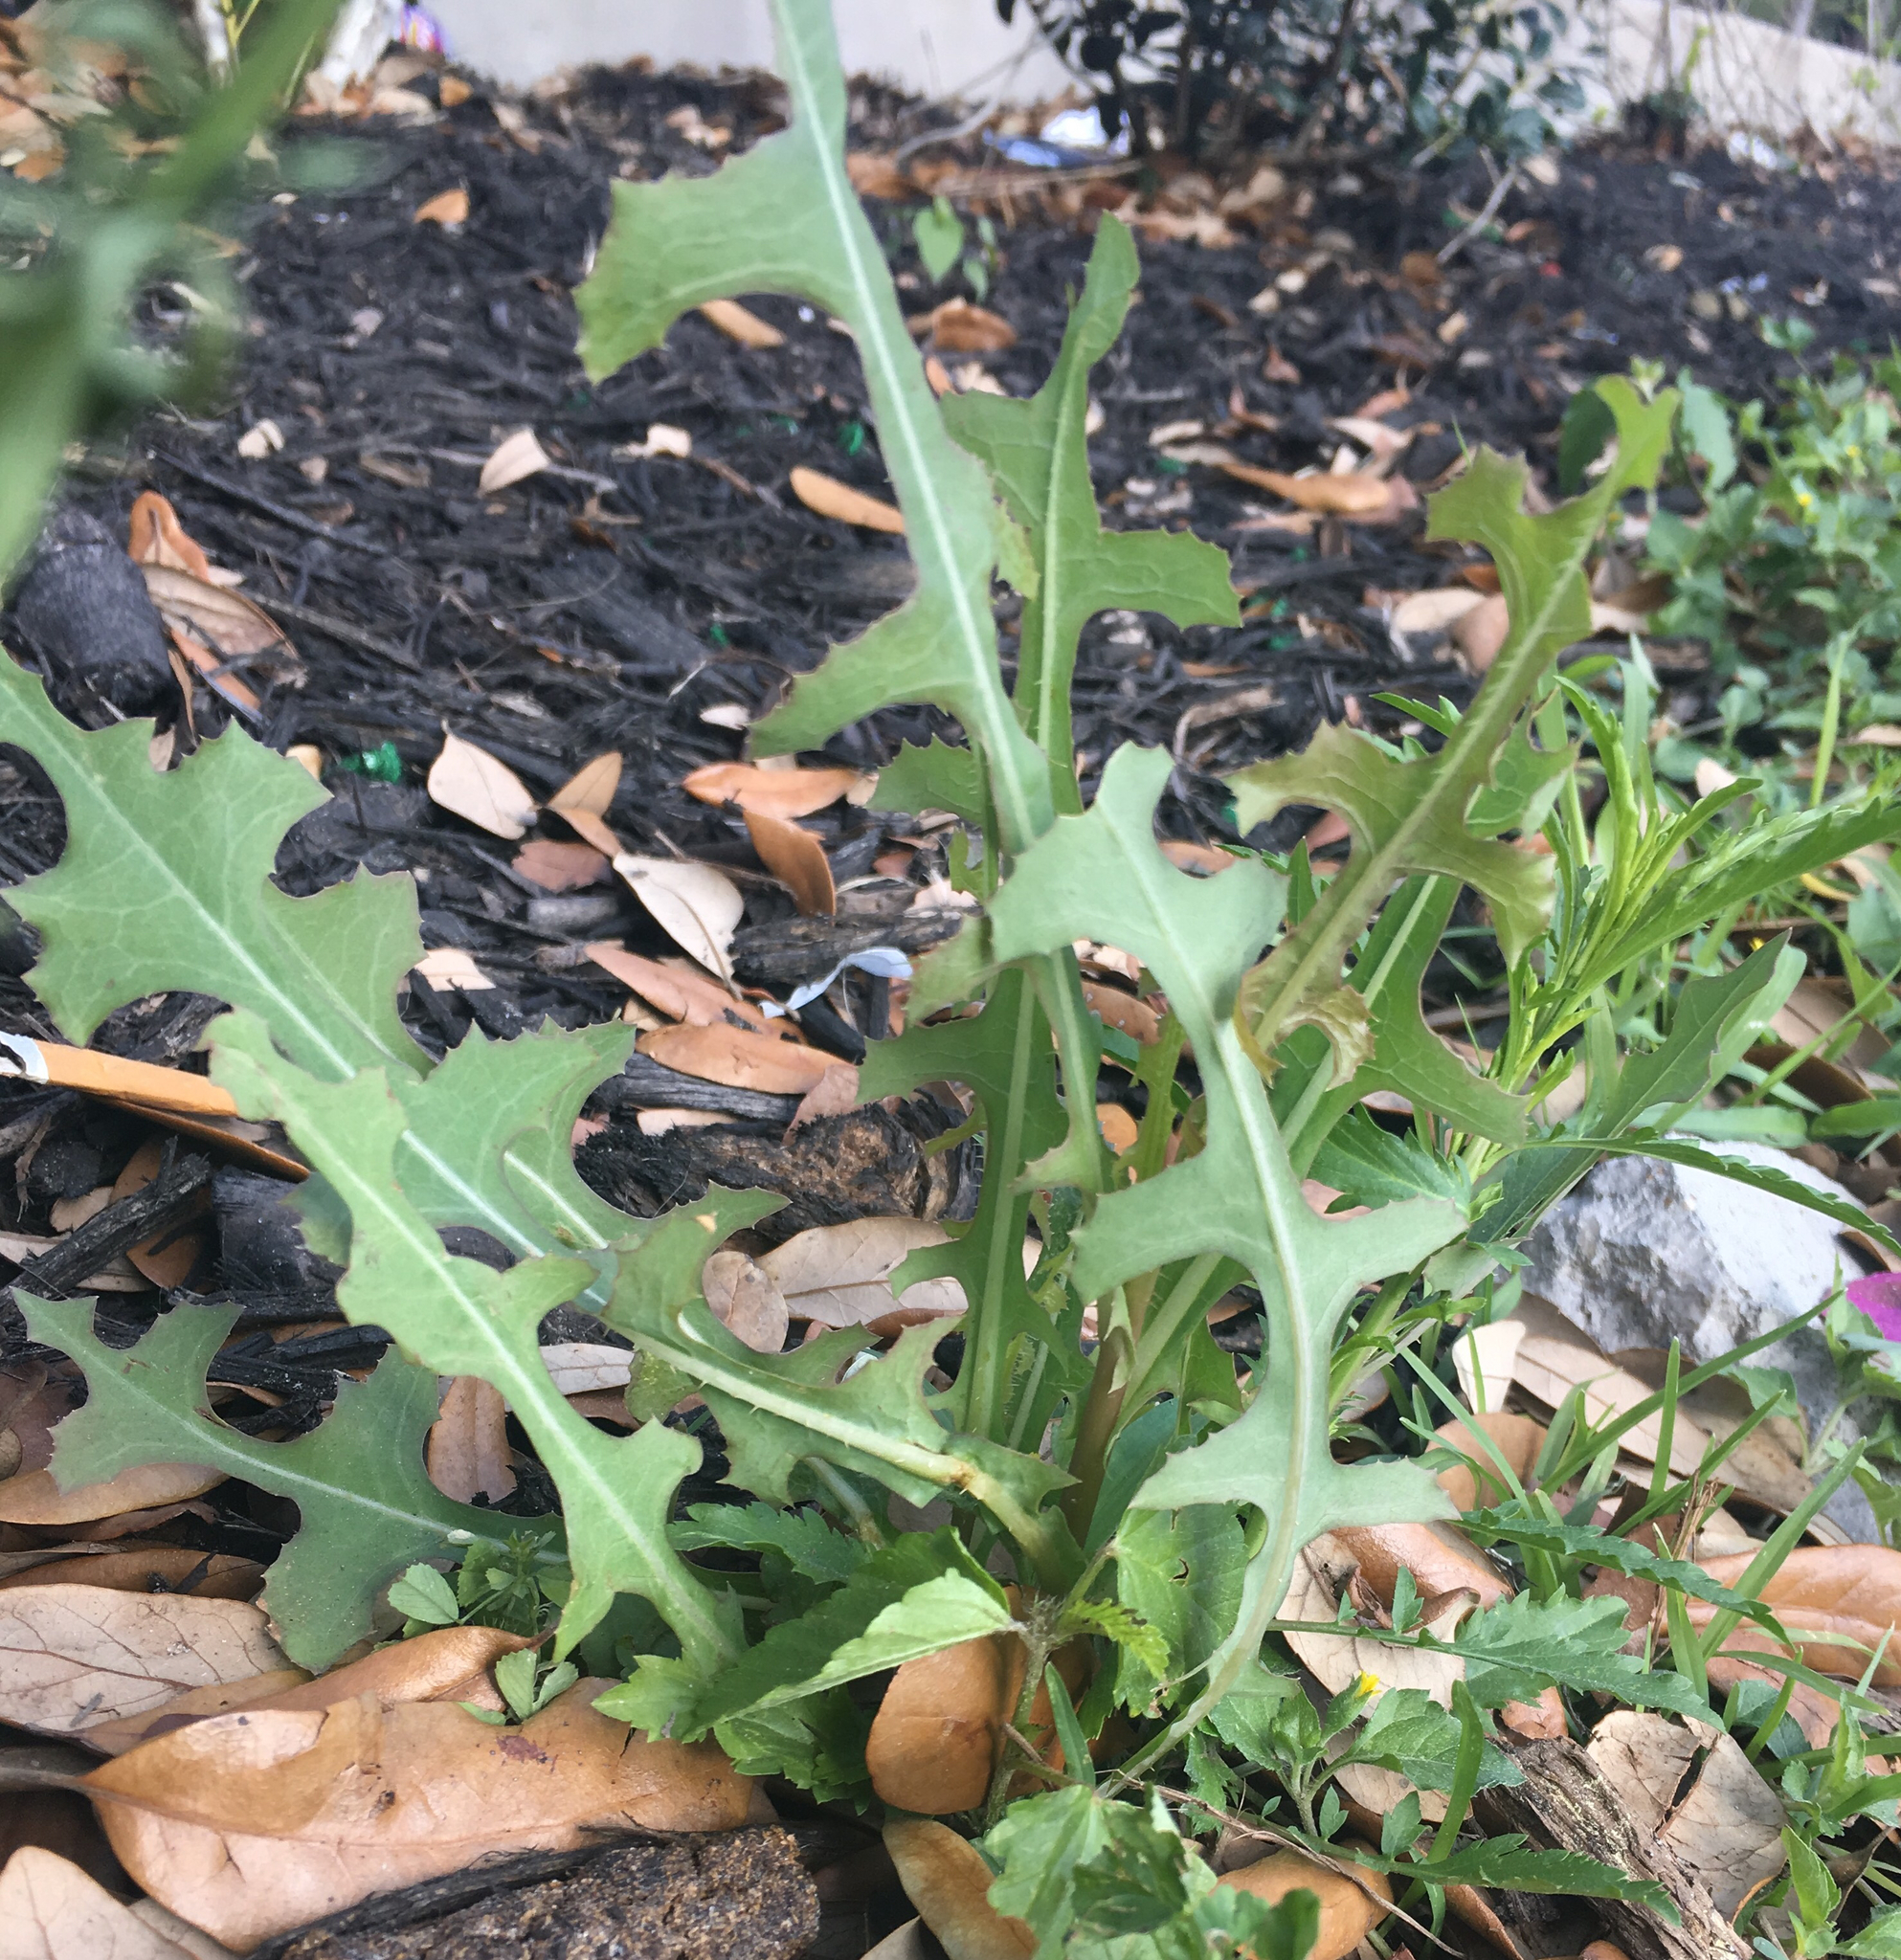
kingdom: Plantae
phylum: Tracheophyta
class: Magnoliopsida
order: Asterales
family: Asteraceae
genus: Lactuca
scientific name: Lactuca serriola
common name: Prickly lettuce
